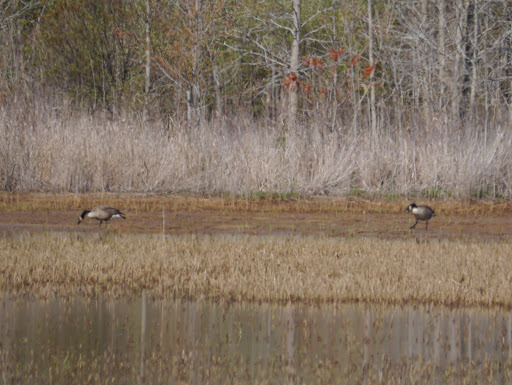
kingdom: Animalia
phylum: Chordata
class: Aves
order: Anseriformes
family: Anatidae
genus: Branta
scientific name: Branta canadensis
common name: Canada goose
